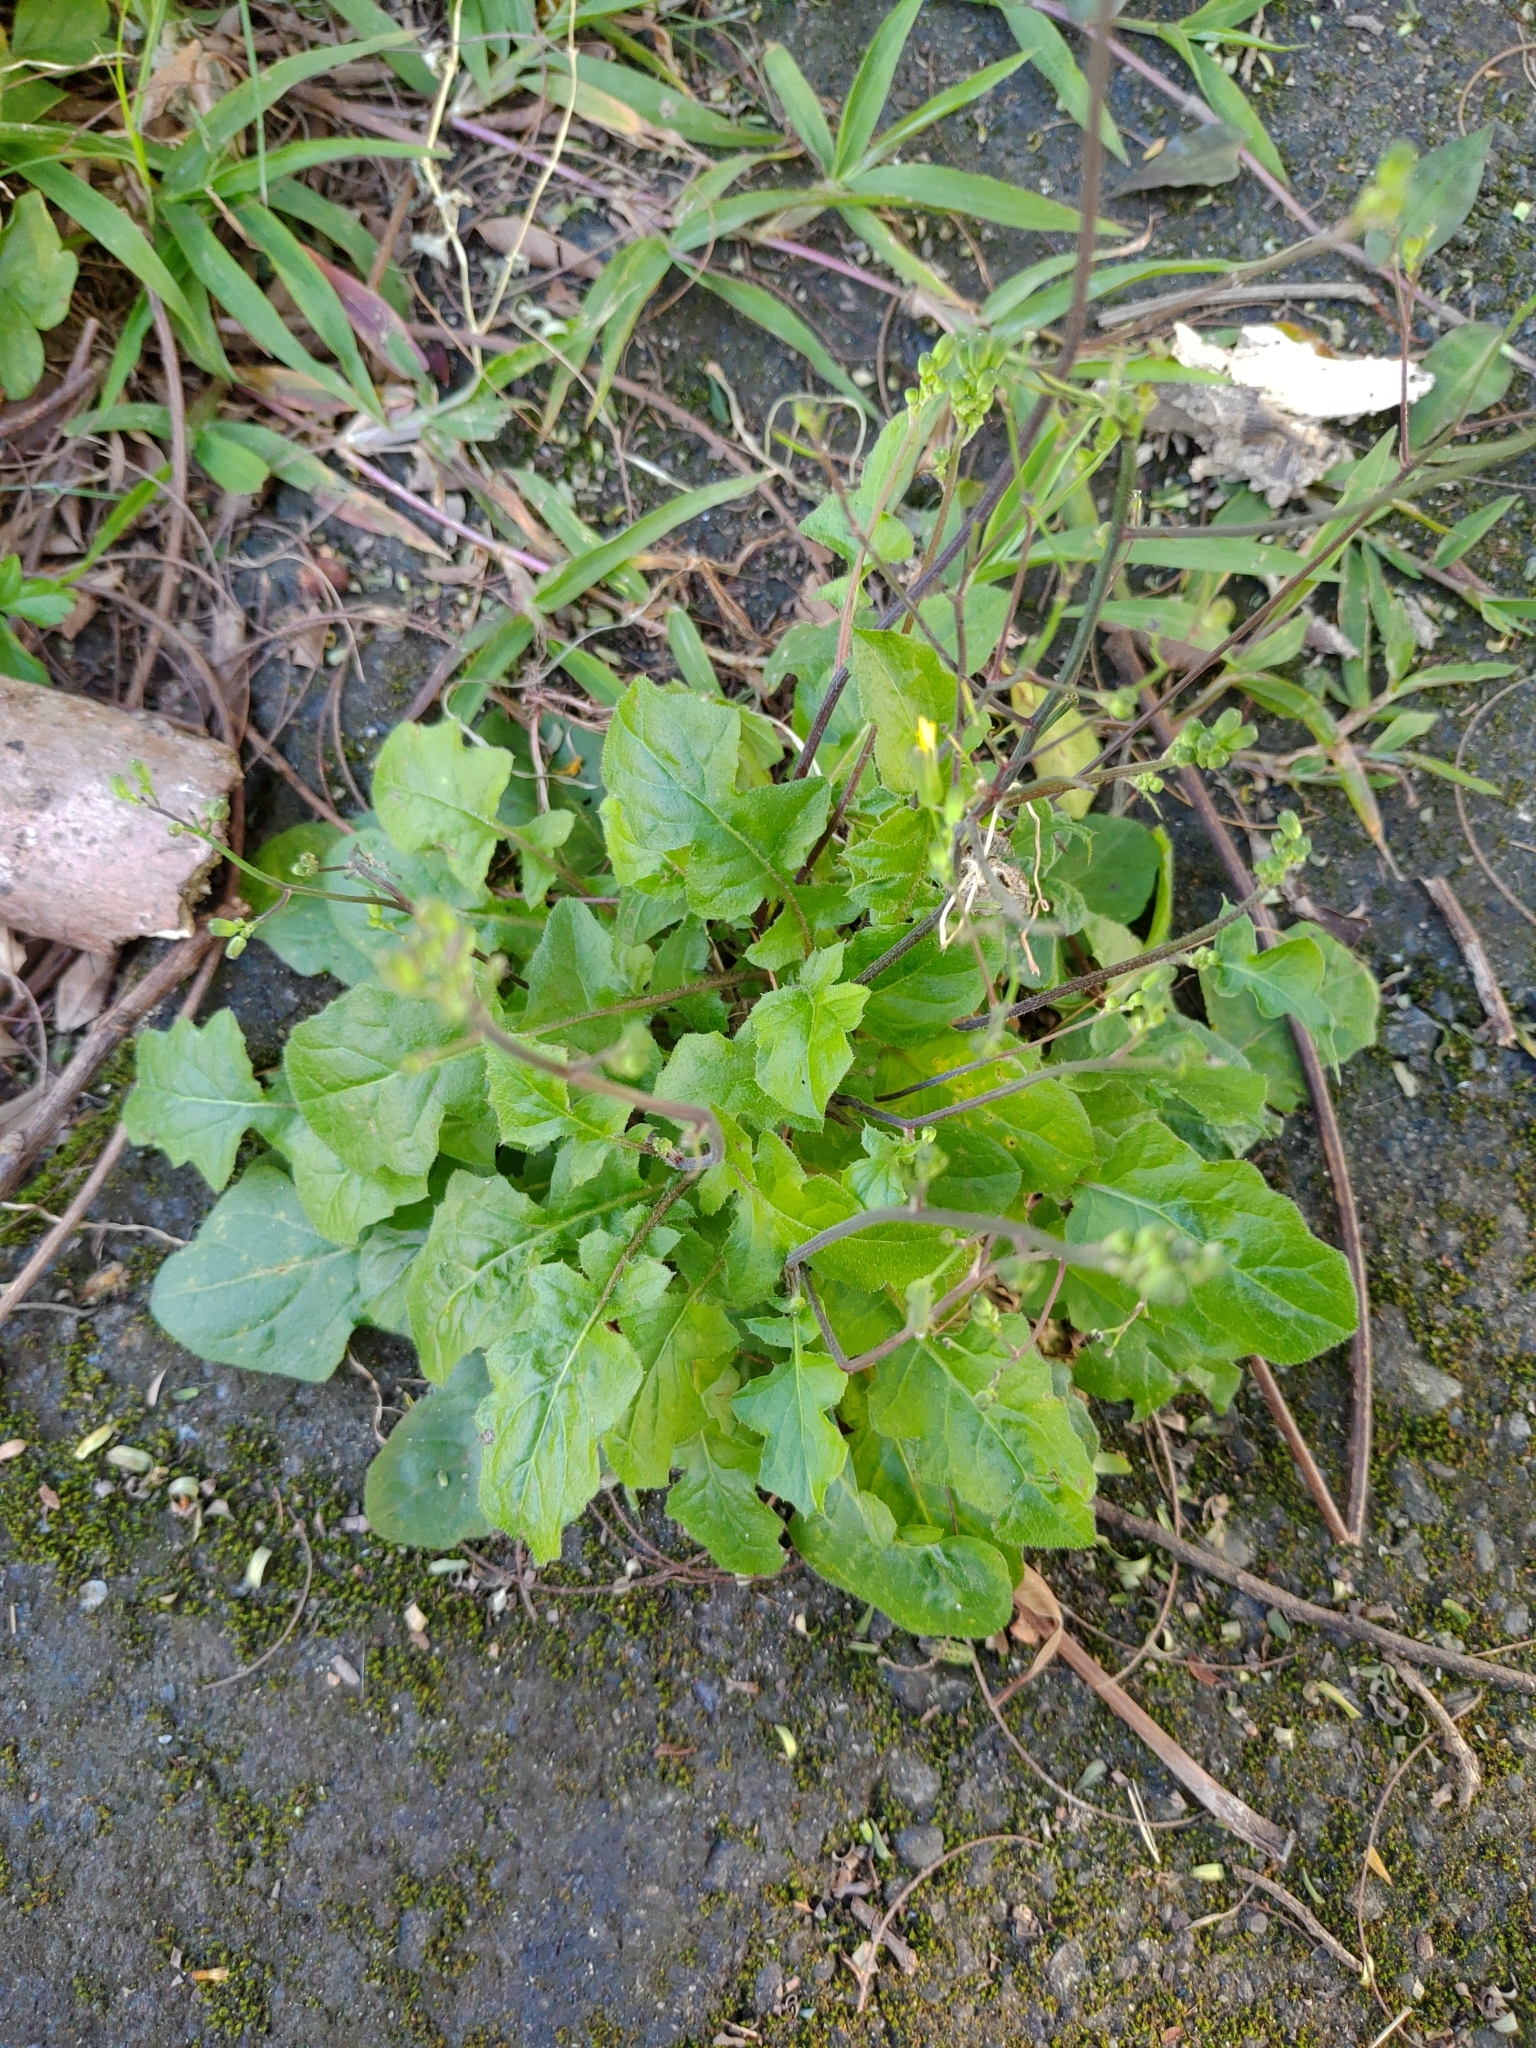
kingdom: Plantae
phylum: Tracheophyta
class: Magnoliopsida
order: Asterales
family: Asteraceae
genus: Youngia
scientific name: Youngia japonica
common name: Oriental false hawksbeard
